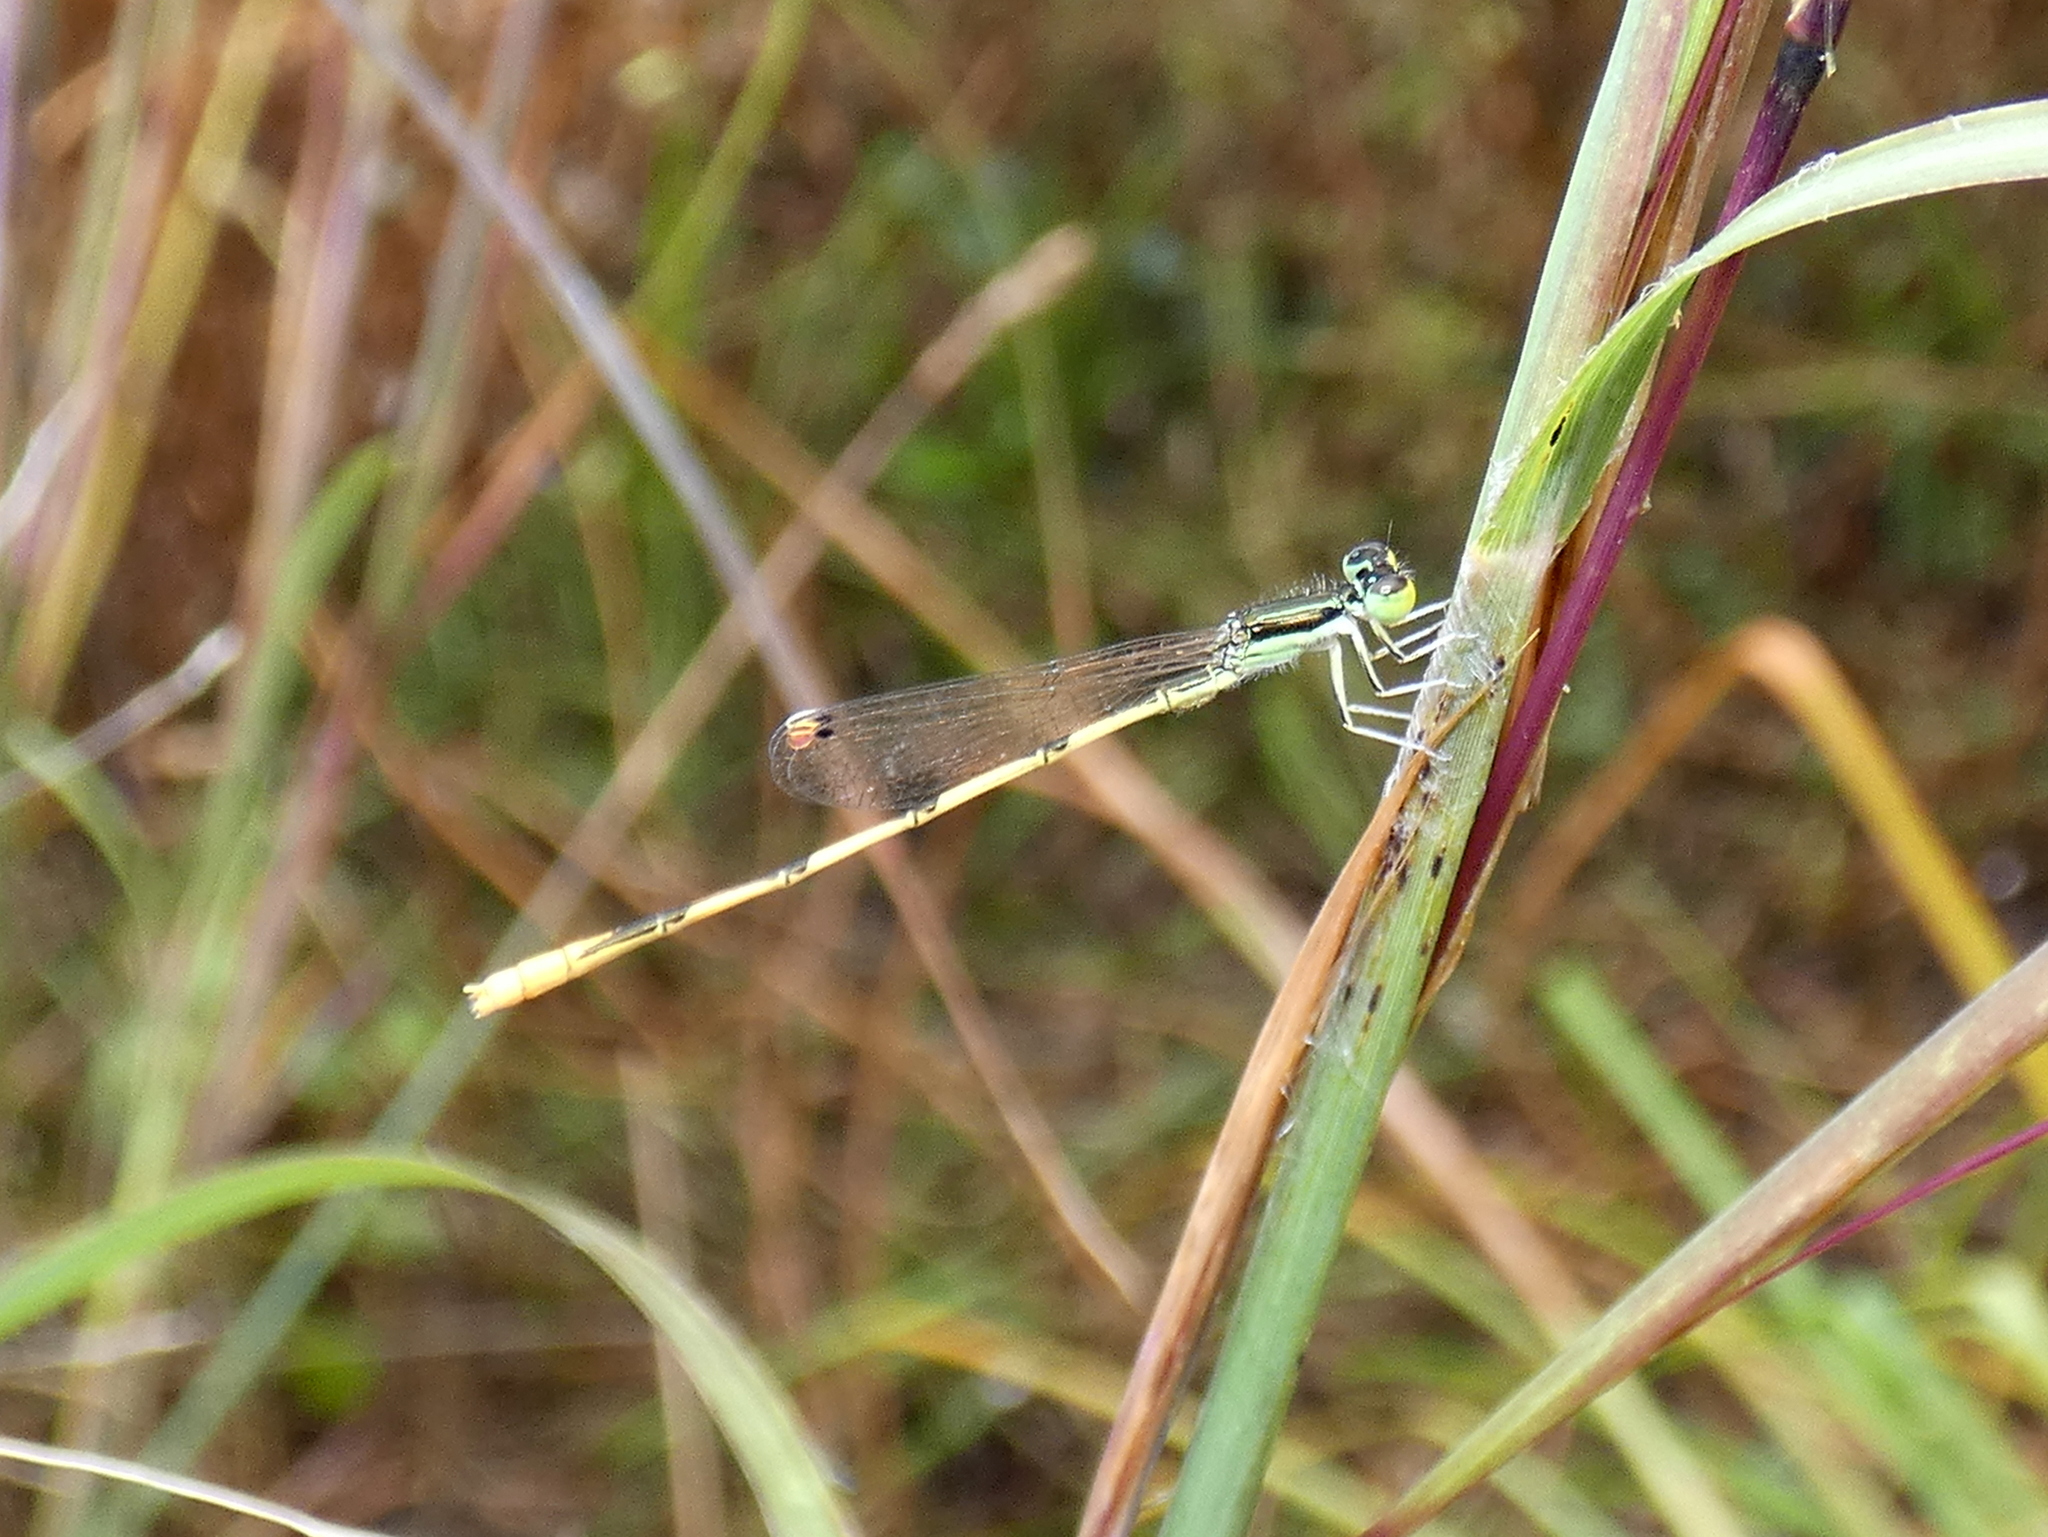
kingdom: Animalia
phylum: Arthropoda
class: Insecta
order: Odonata
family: Coenagrionidae
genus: Ischnura
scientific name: Ischnura hastata
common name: Citrine forktail
